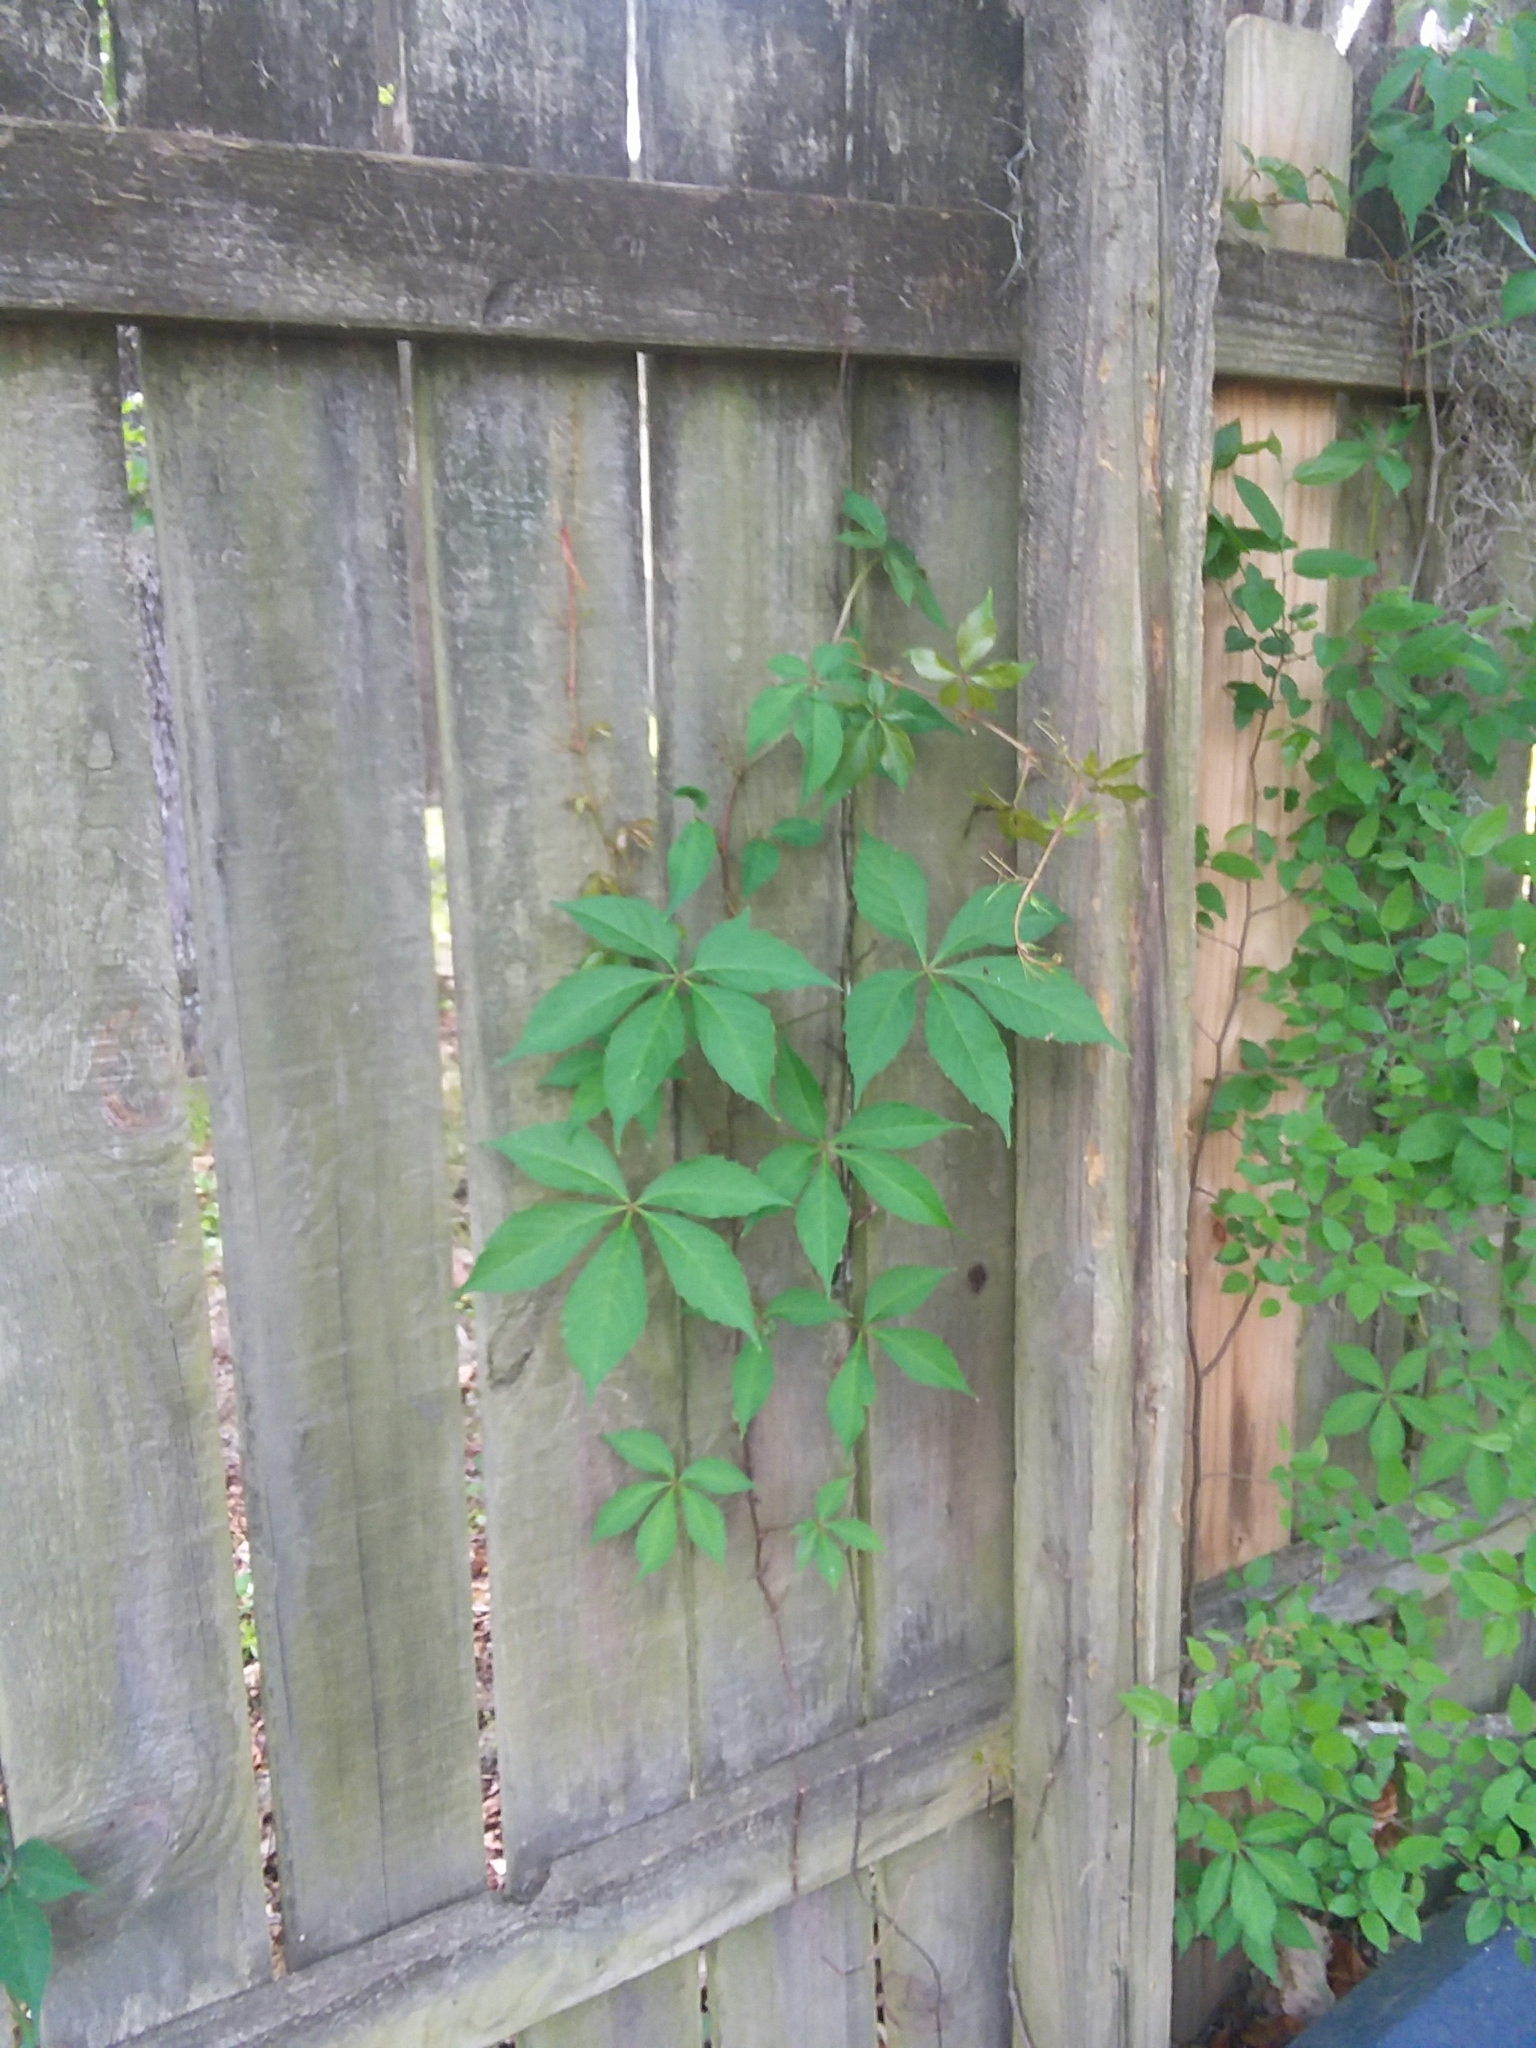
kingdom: Plantae
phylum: Tracheophyta
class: Magnoliopsida
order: Vitales
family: Vitaceae
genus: Parthenocissus
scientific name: Parthenocissus quinquefolia
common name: Virginia-creeper
